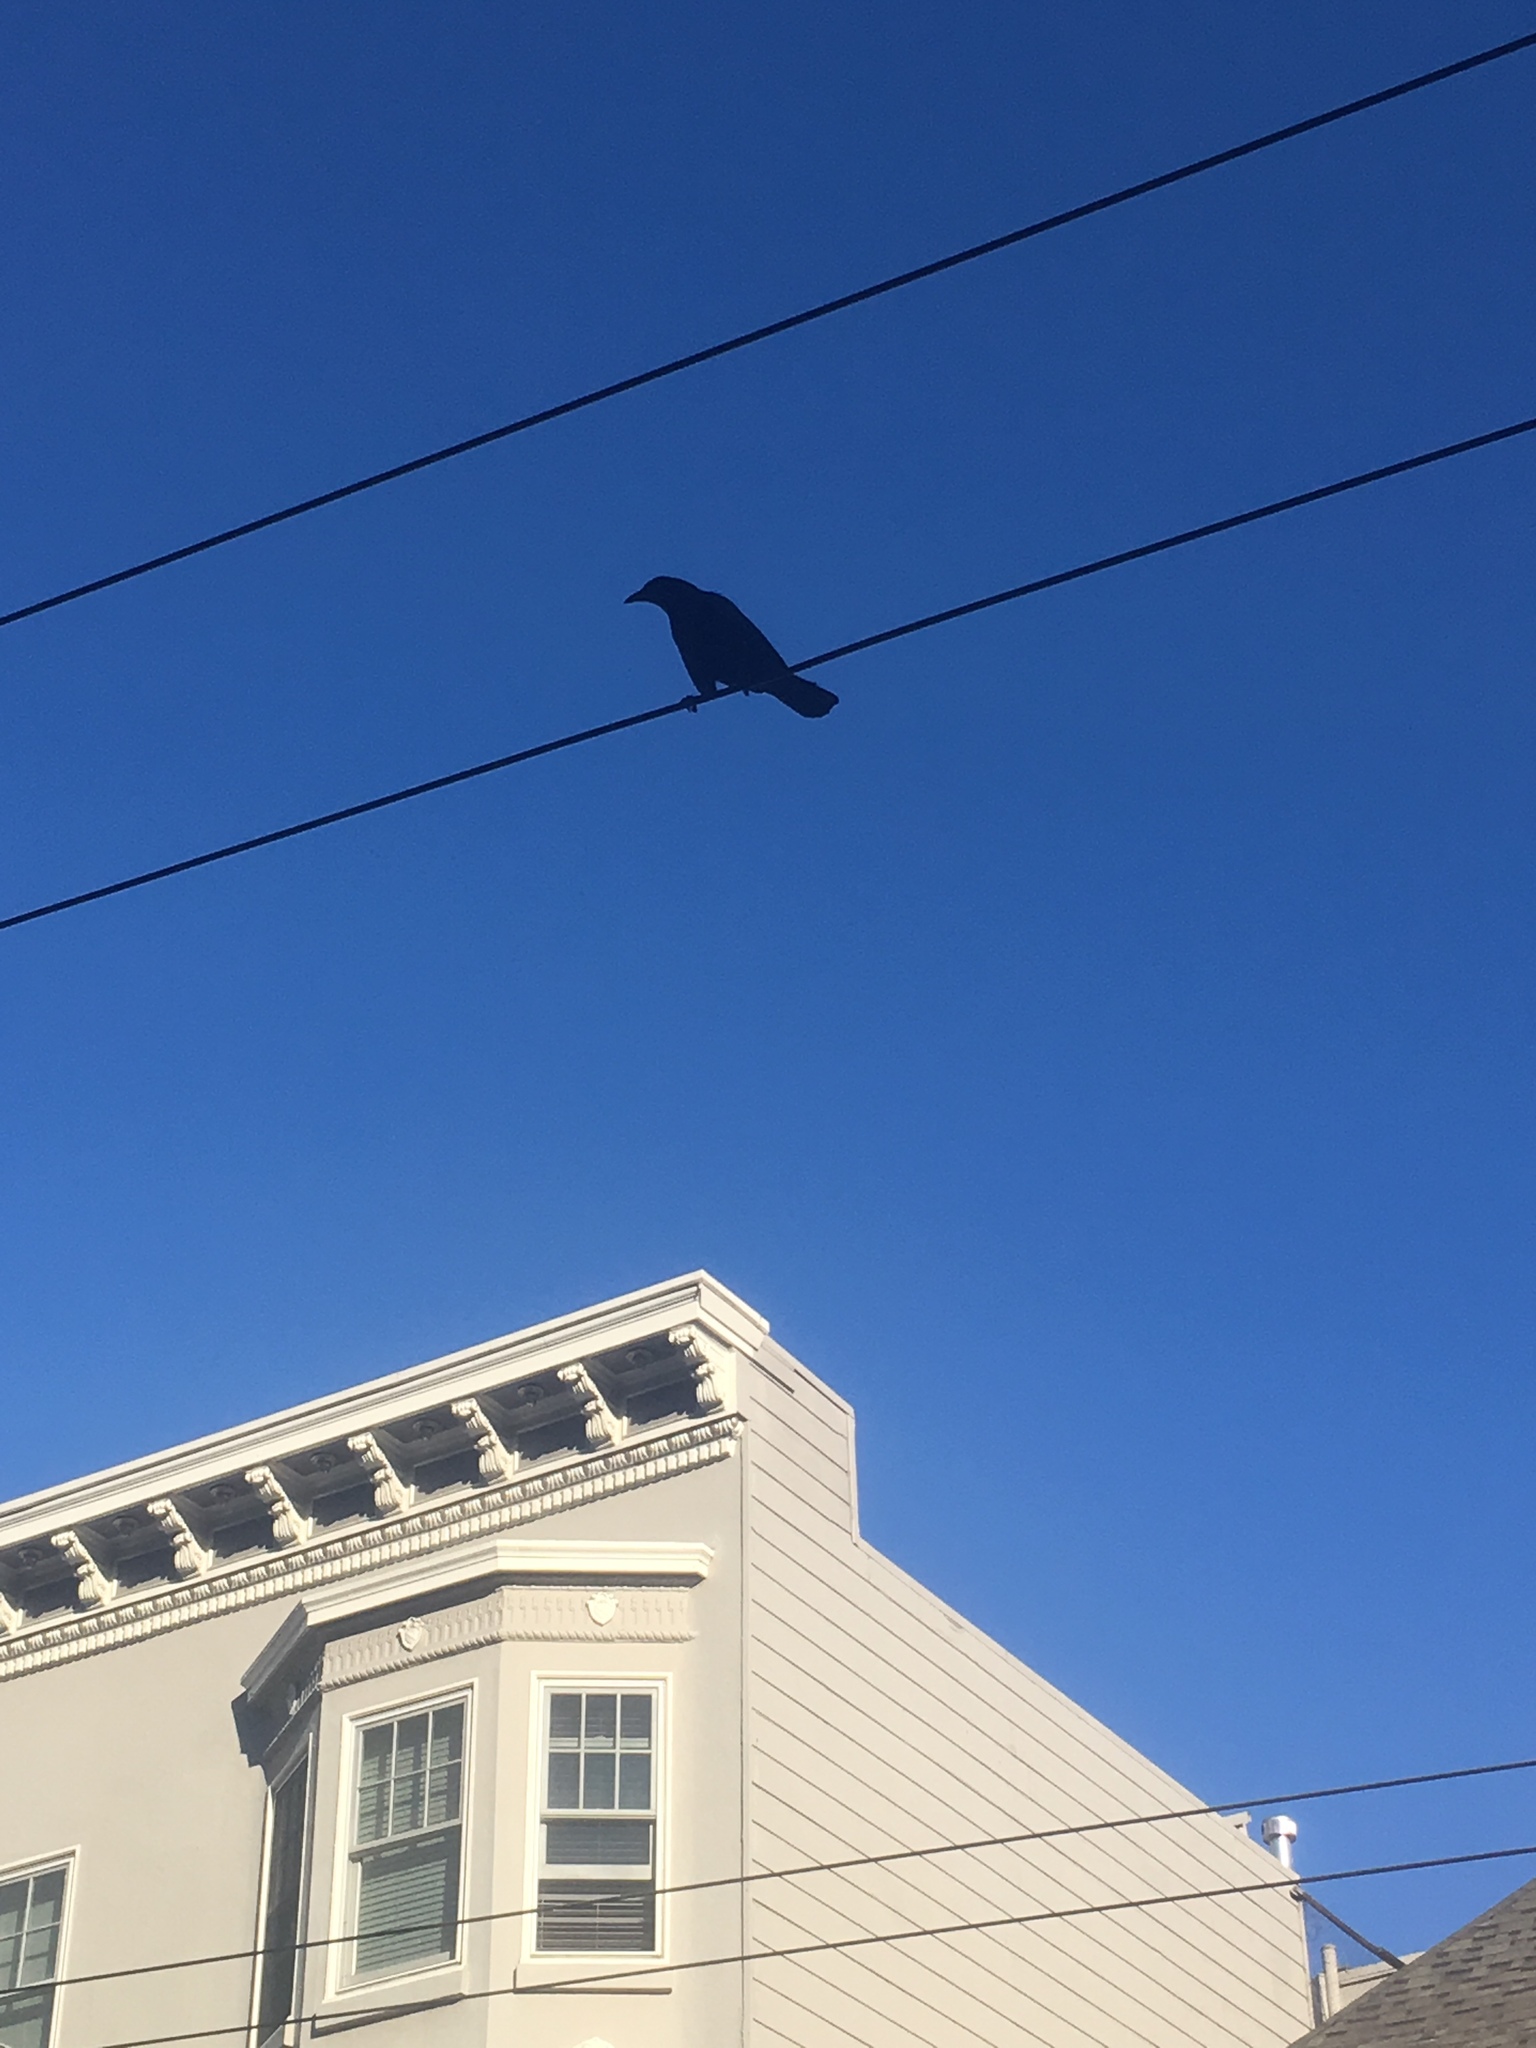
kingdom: Animalia
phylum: Chordata
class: Aves
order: Passeriformes
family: Corvidae
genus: Corvus
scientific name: Corvus brachyrhynchos
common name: American crow
